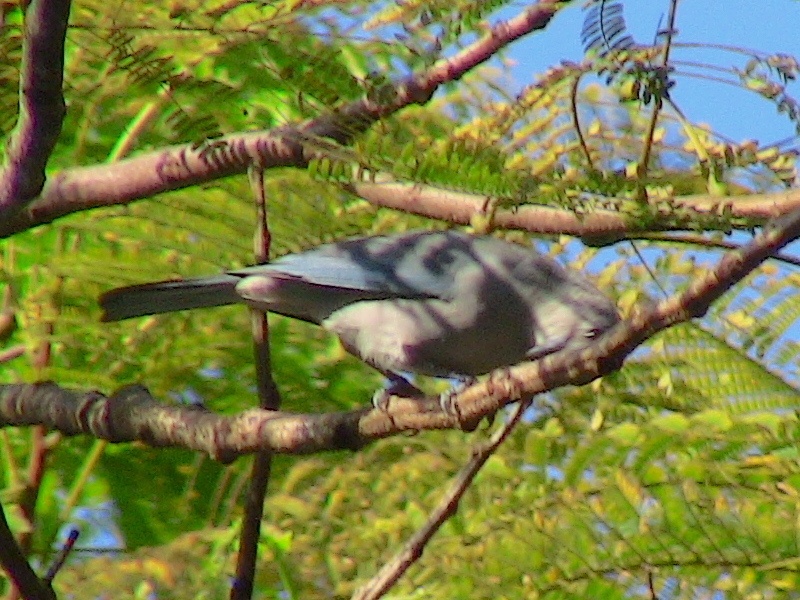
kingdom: Animalia
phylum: Chordata
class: Aves
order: Passeriformes
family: Thraupidae
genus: Thraupis
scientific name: Thraupis sayaca
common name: Sayaca tanager
